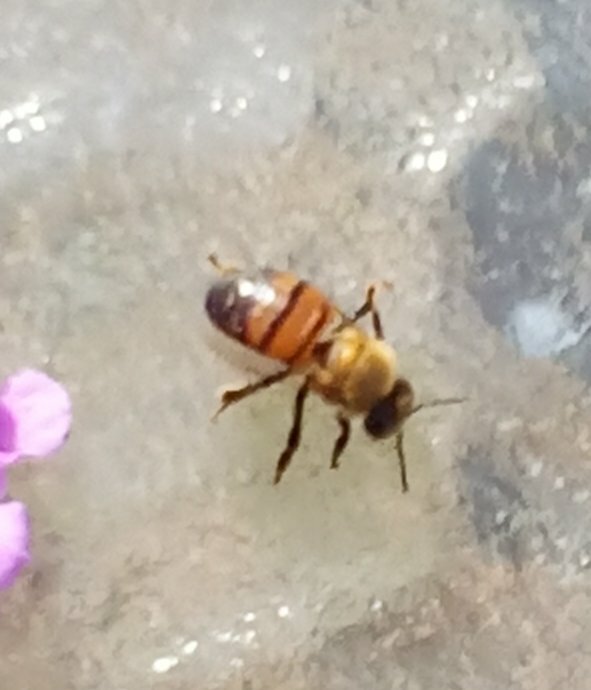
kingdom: Animalia
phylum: Arthropoda
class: Insecta
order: Hymenoptera
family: Apidae
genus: Apis
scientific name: Apis mellifera
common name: Honey bee
